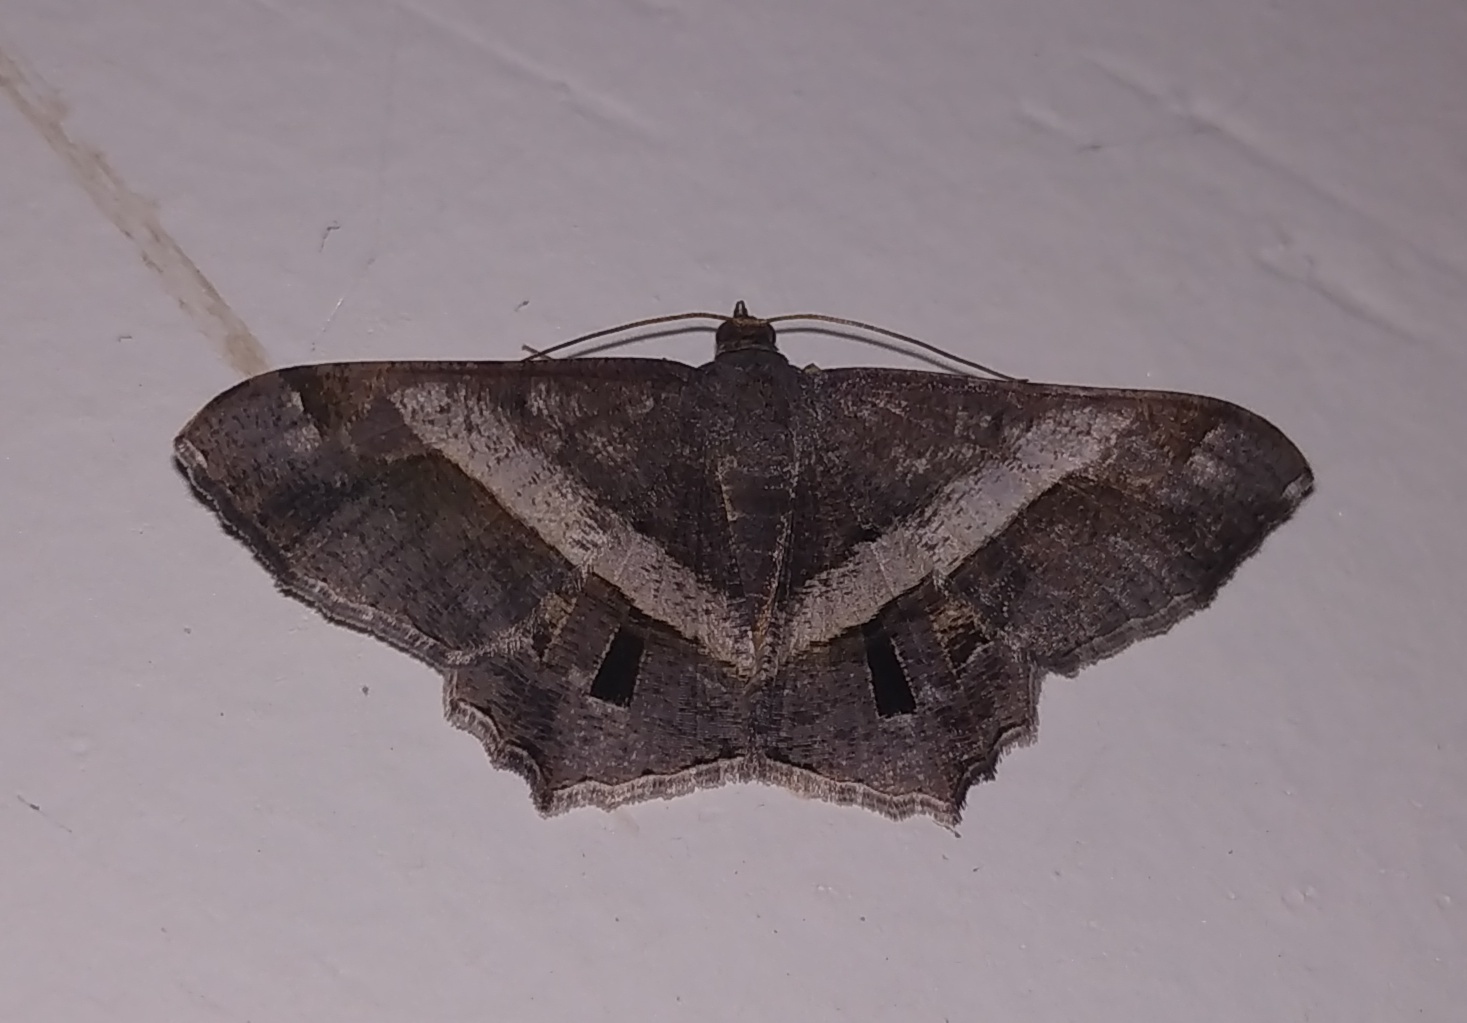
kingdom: Animalia
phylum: Arthropoda
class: Insecta
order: Lepidoptera
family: Geometridae
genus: Chiasmia
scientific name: Chiasmia eleonora
